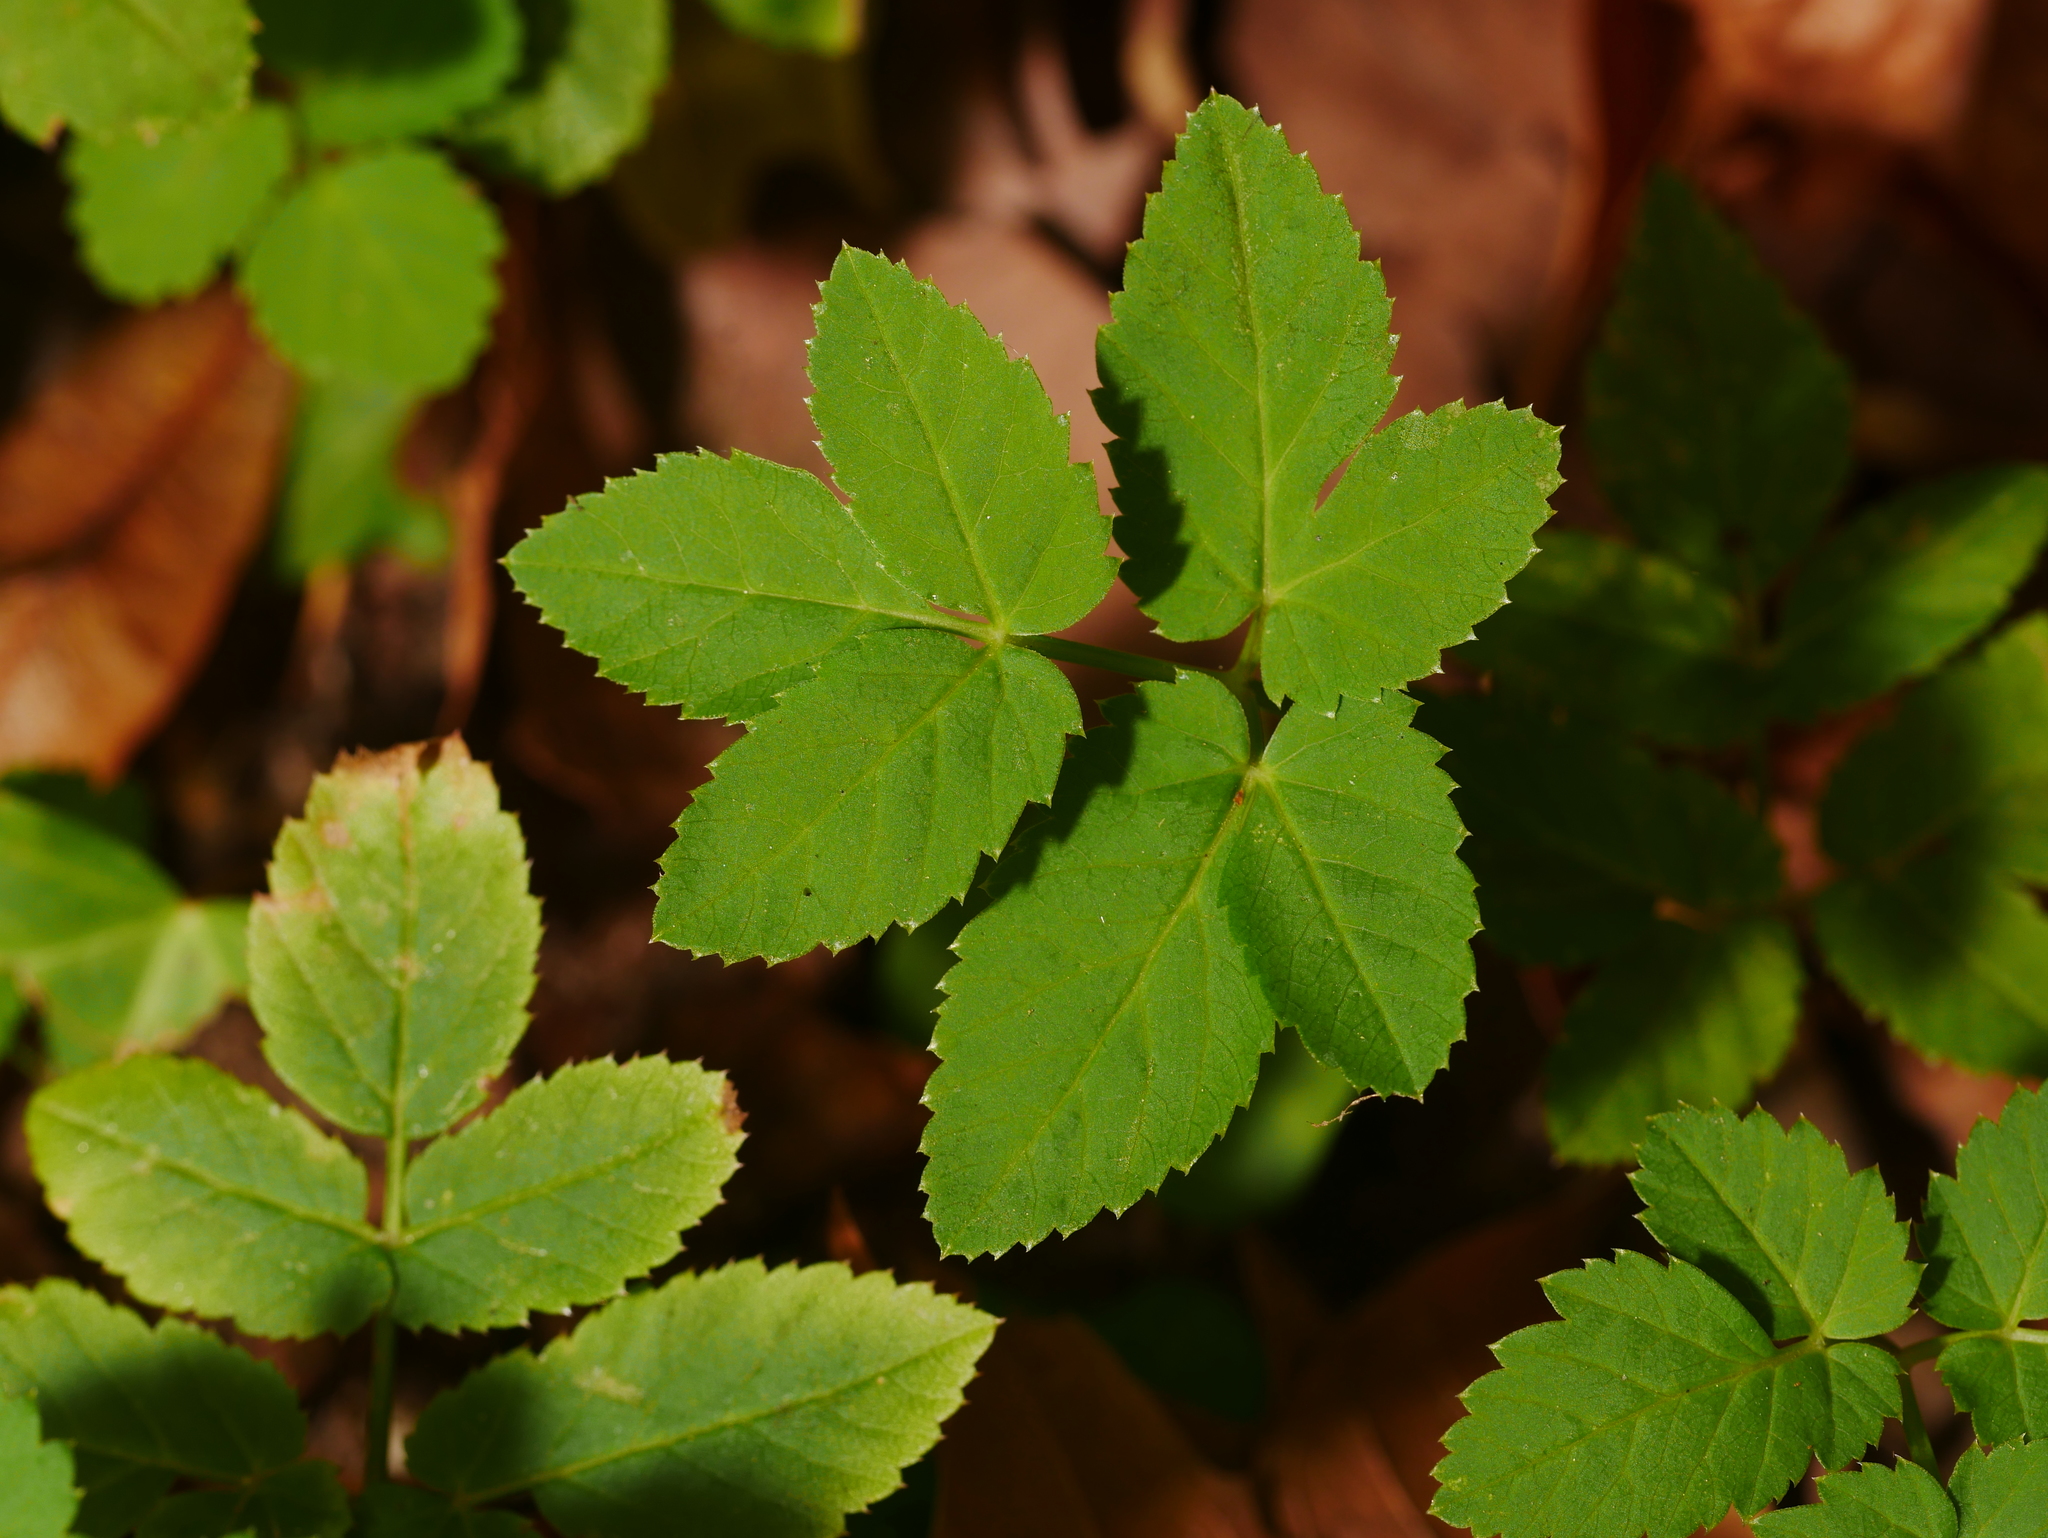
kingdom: Plantae
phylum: Tracheophyta
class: Magnoliopsida
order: Apiales
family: Apiaceae
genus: Aegopodium
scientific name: Aegopodium podagraria
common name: Ground-elder
